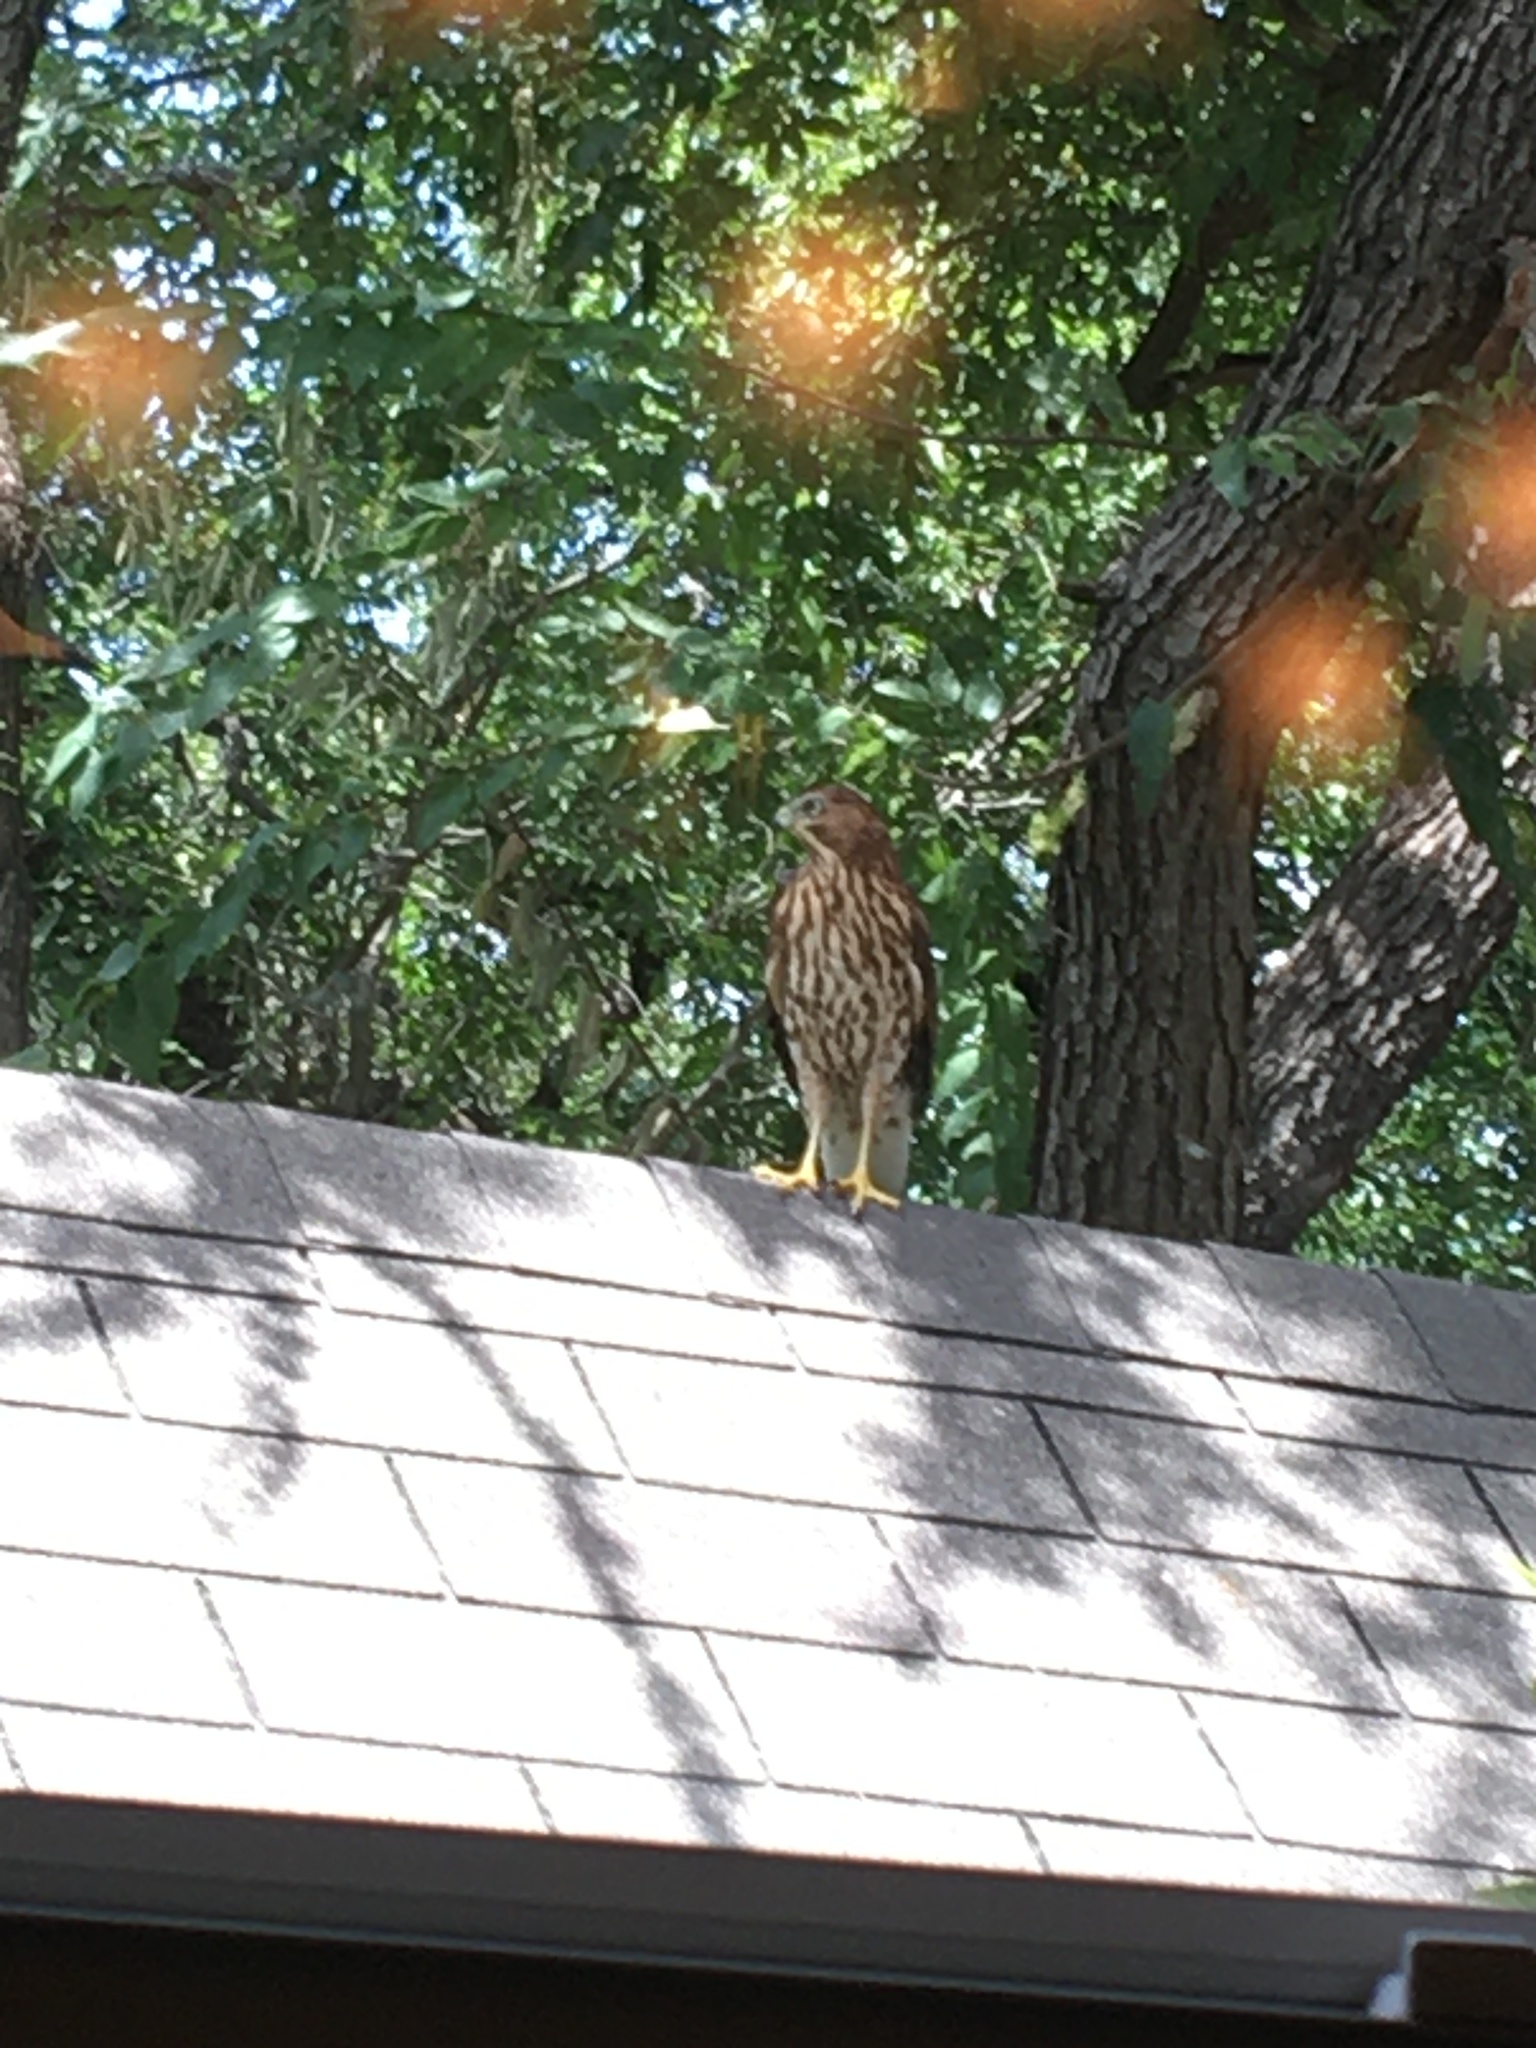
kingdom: Animalia
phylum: Chordata
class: Aves
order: Accipitriformes
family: Accipitridae
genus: Accipiter
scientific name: Accipiter cooperii
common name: Cooper's hawk
